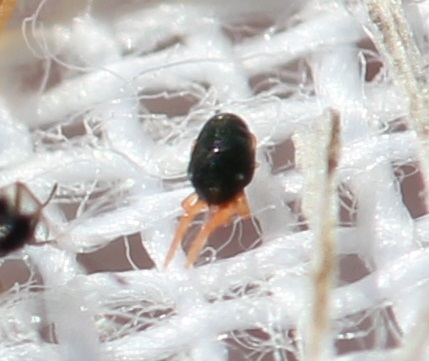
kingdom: Animalia
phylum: Arthropoda
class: Arachnida
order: Trombidiformes
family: Penthaleidae
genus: Penthaleus
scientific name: Penthaleus major
